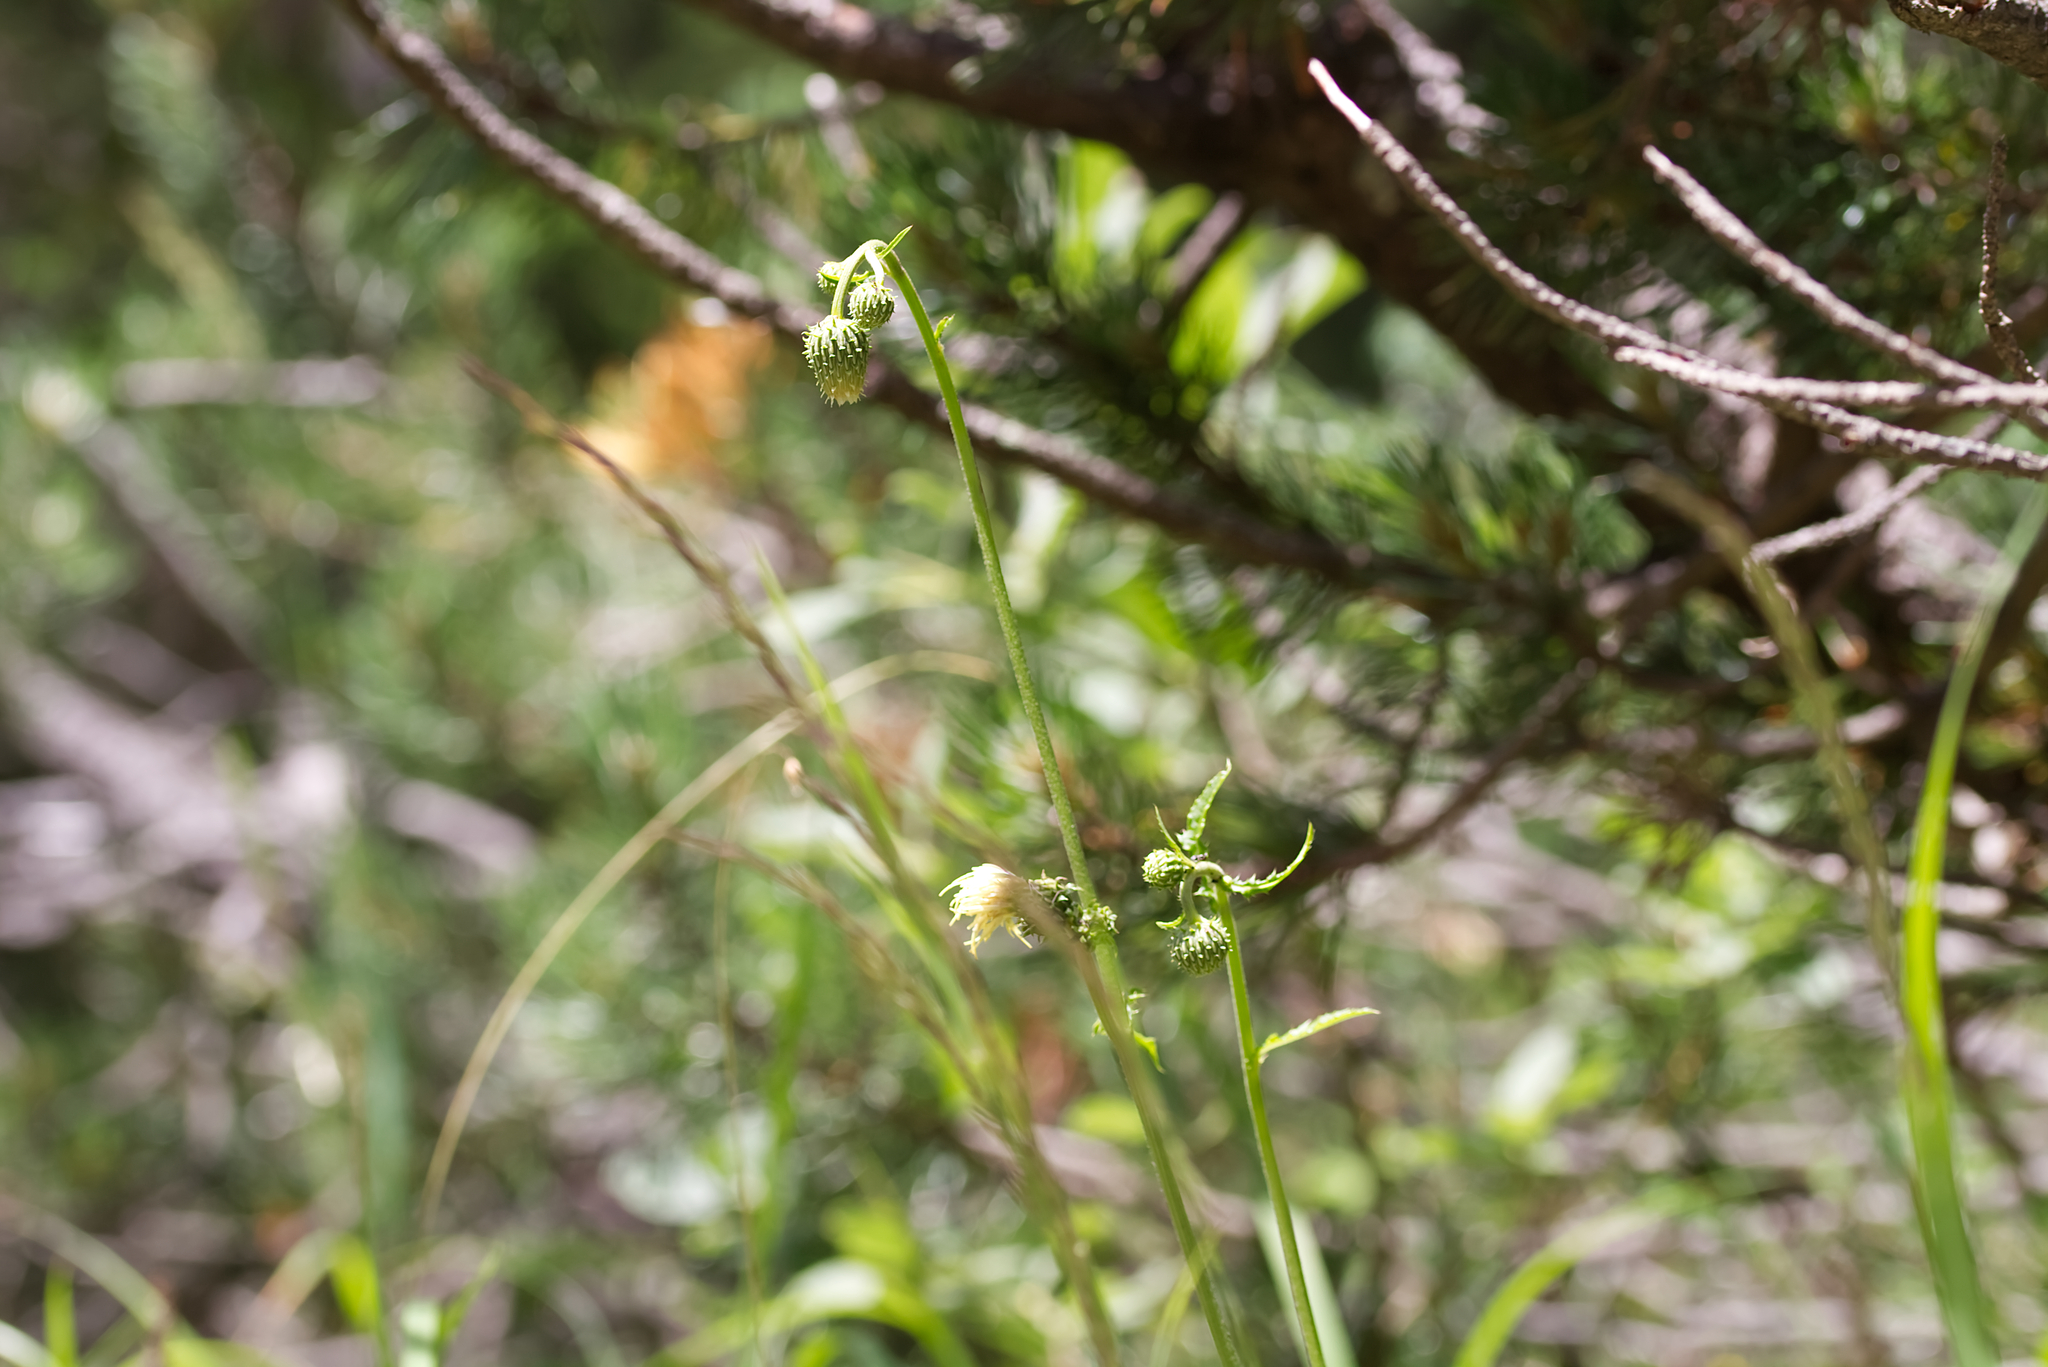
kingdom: Plantae
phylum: Tracheophyta
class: Magnoliopsida
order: Asterales
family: Asteraceae
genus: Cirsium
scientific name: Cirsium erisithales
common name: Yellow thistle
